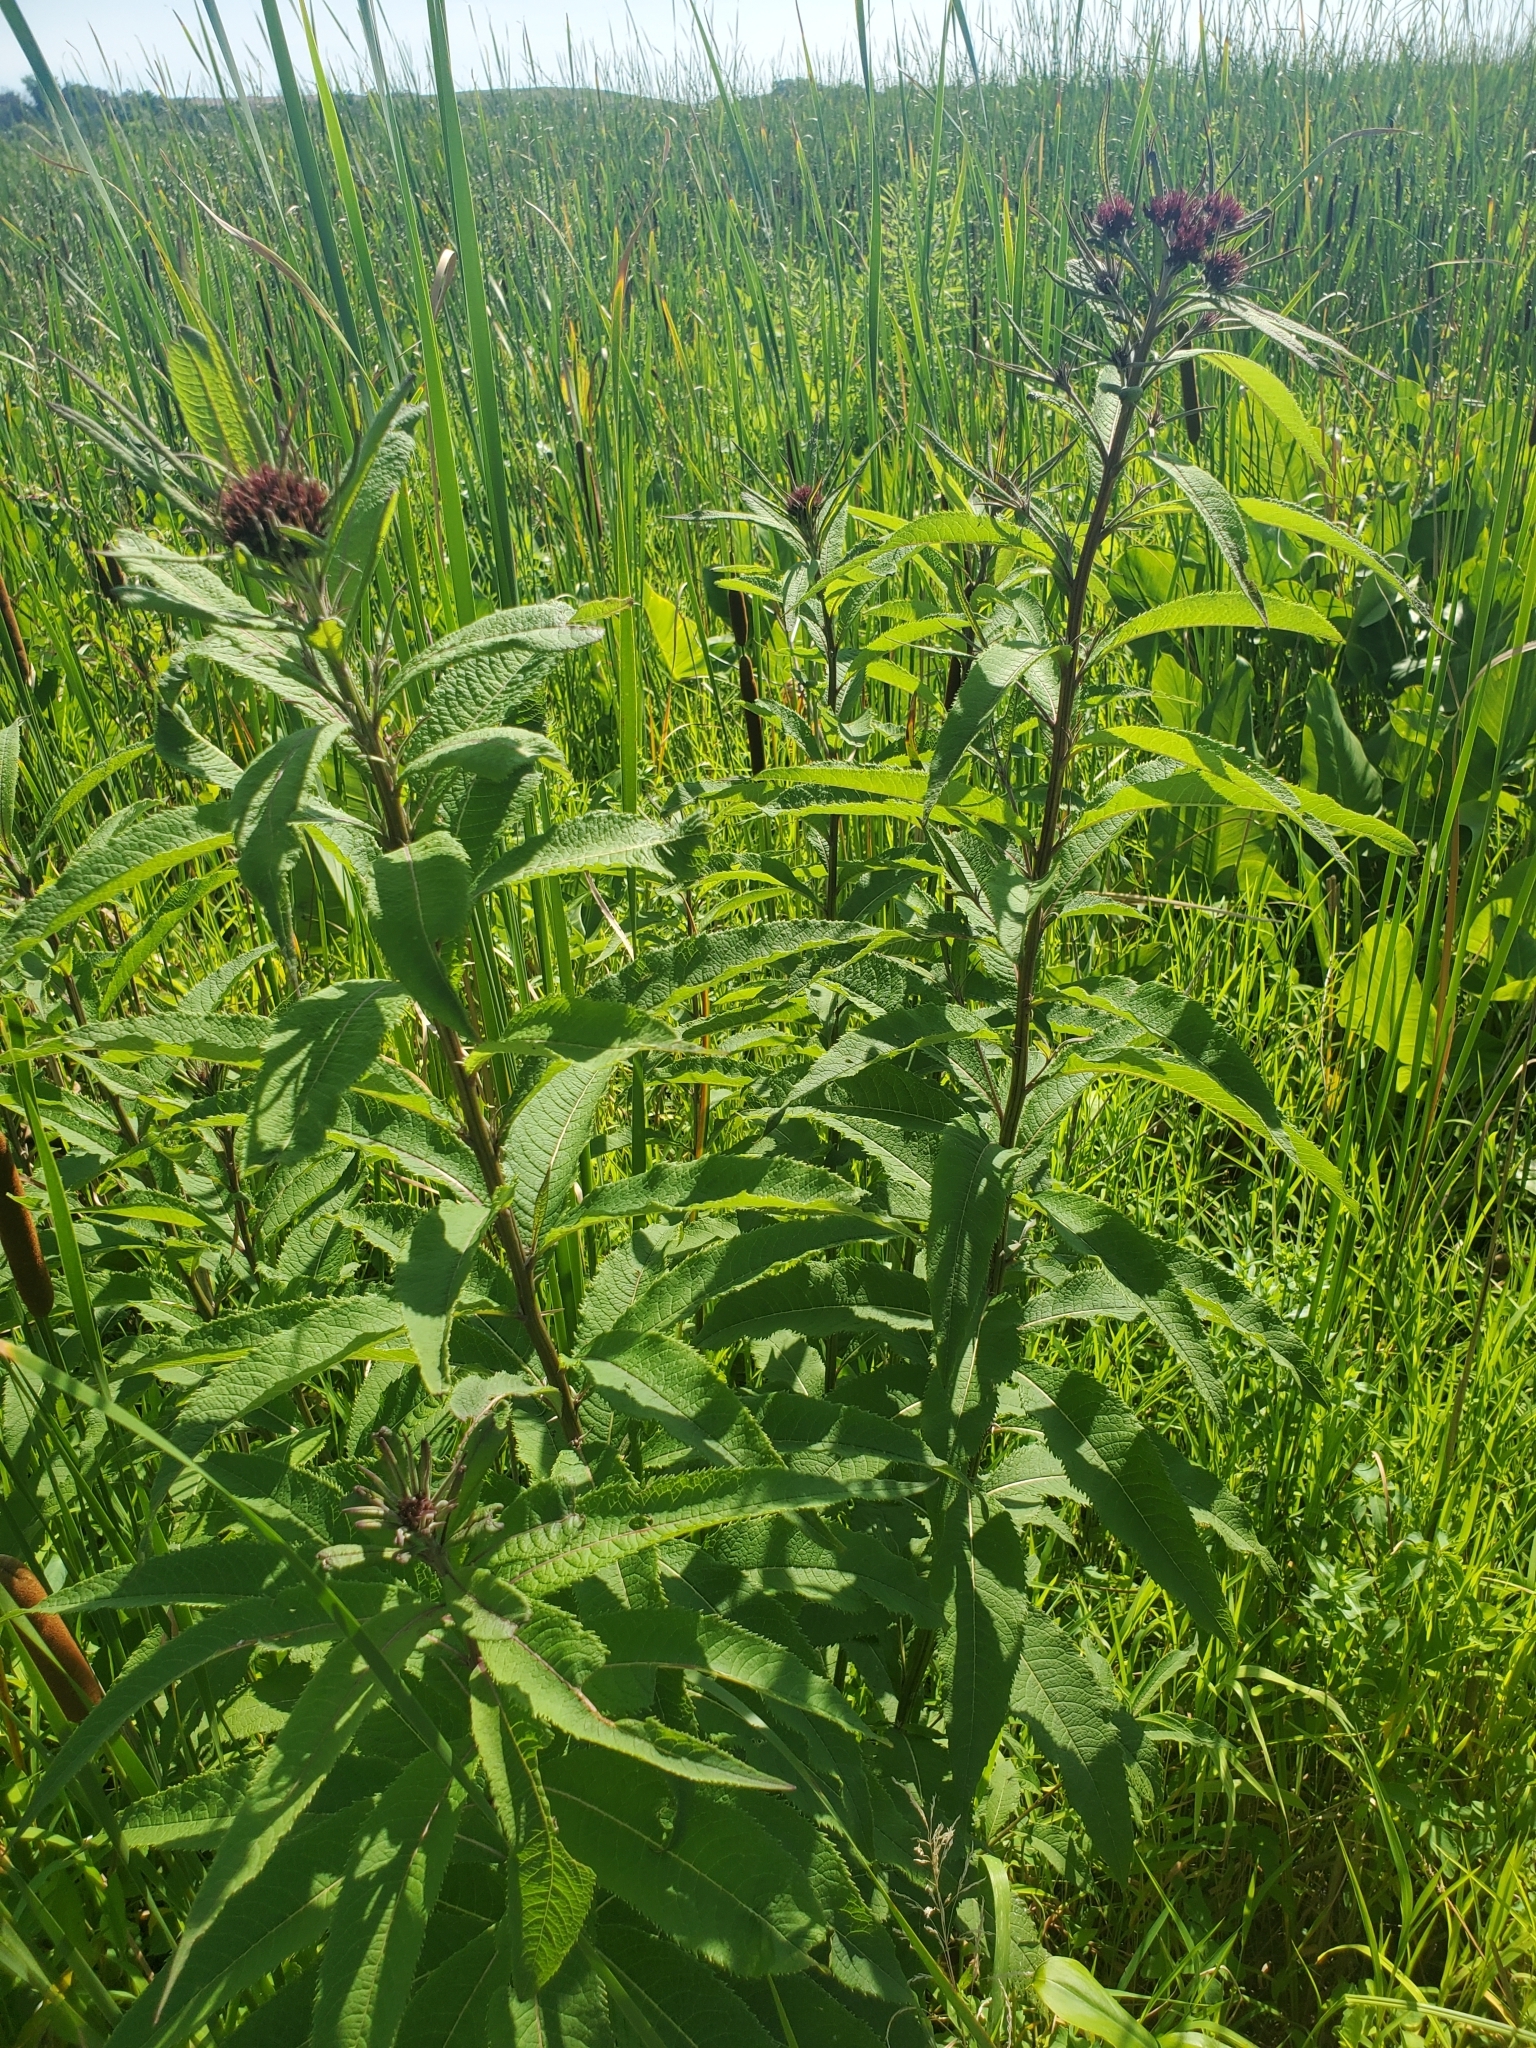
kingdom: Plantae
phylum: Tracheophyta
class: Magnoliopsida
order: Asterales
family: Asteraceae
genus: Vernonia
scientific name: Vernonia noveboracensis
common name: New york ironweed
